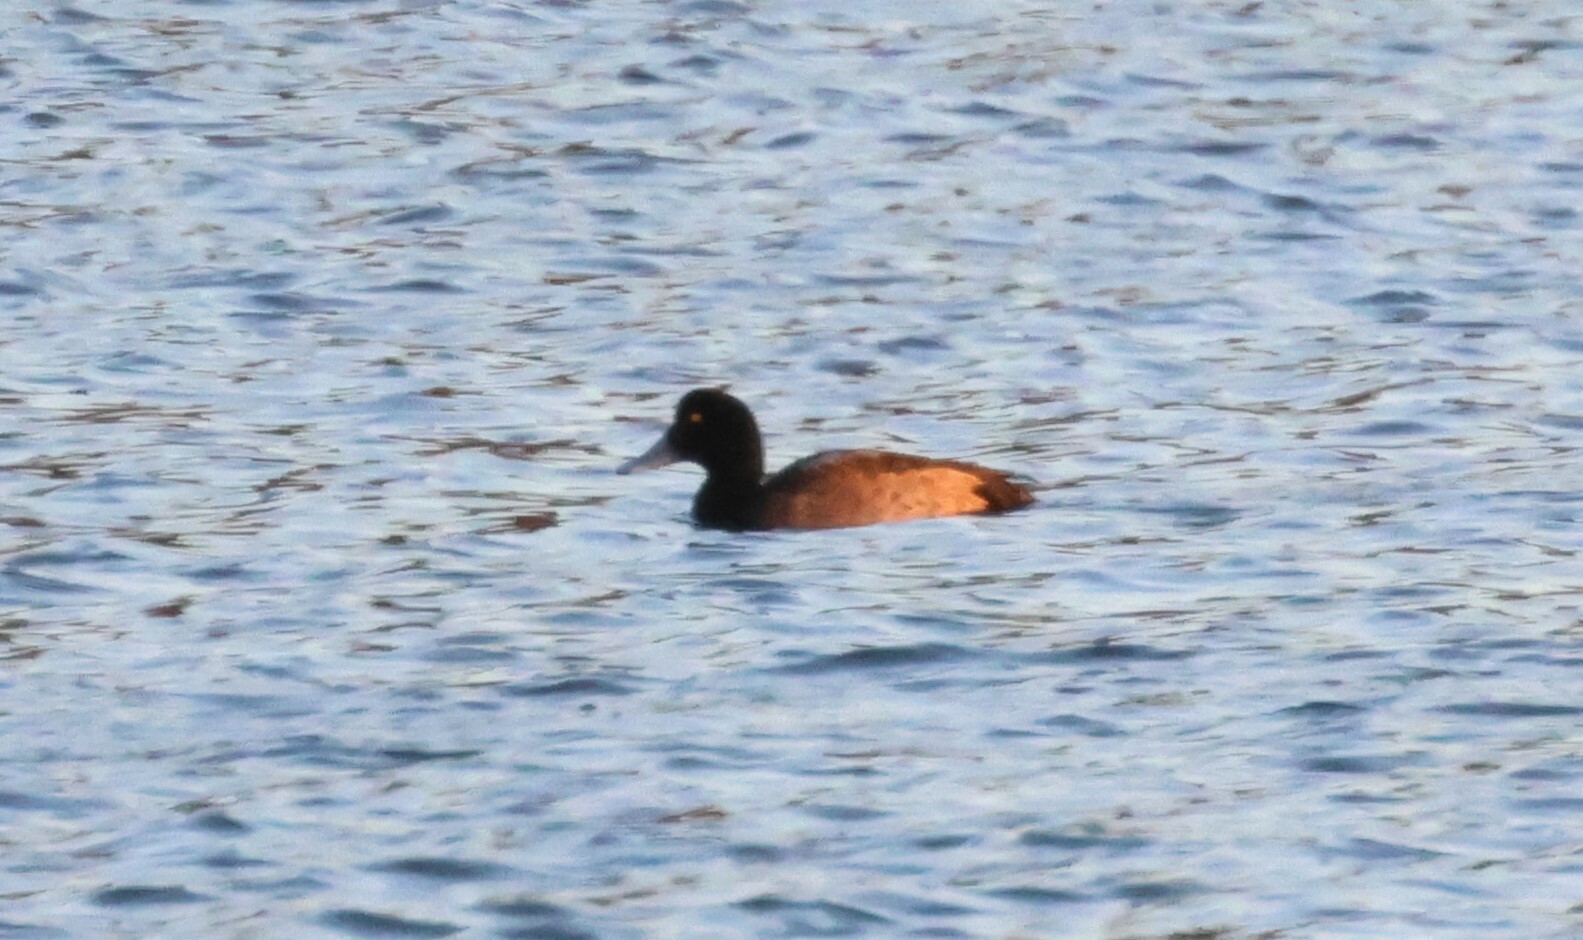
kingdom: Animalia
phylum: Chordata
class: Aves
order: Anseriformes
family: Anatidae
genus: Aythya
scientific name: Aythya marila
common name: Greater scaup
